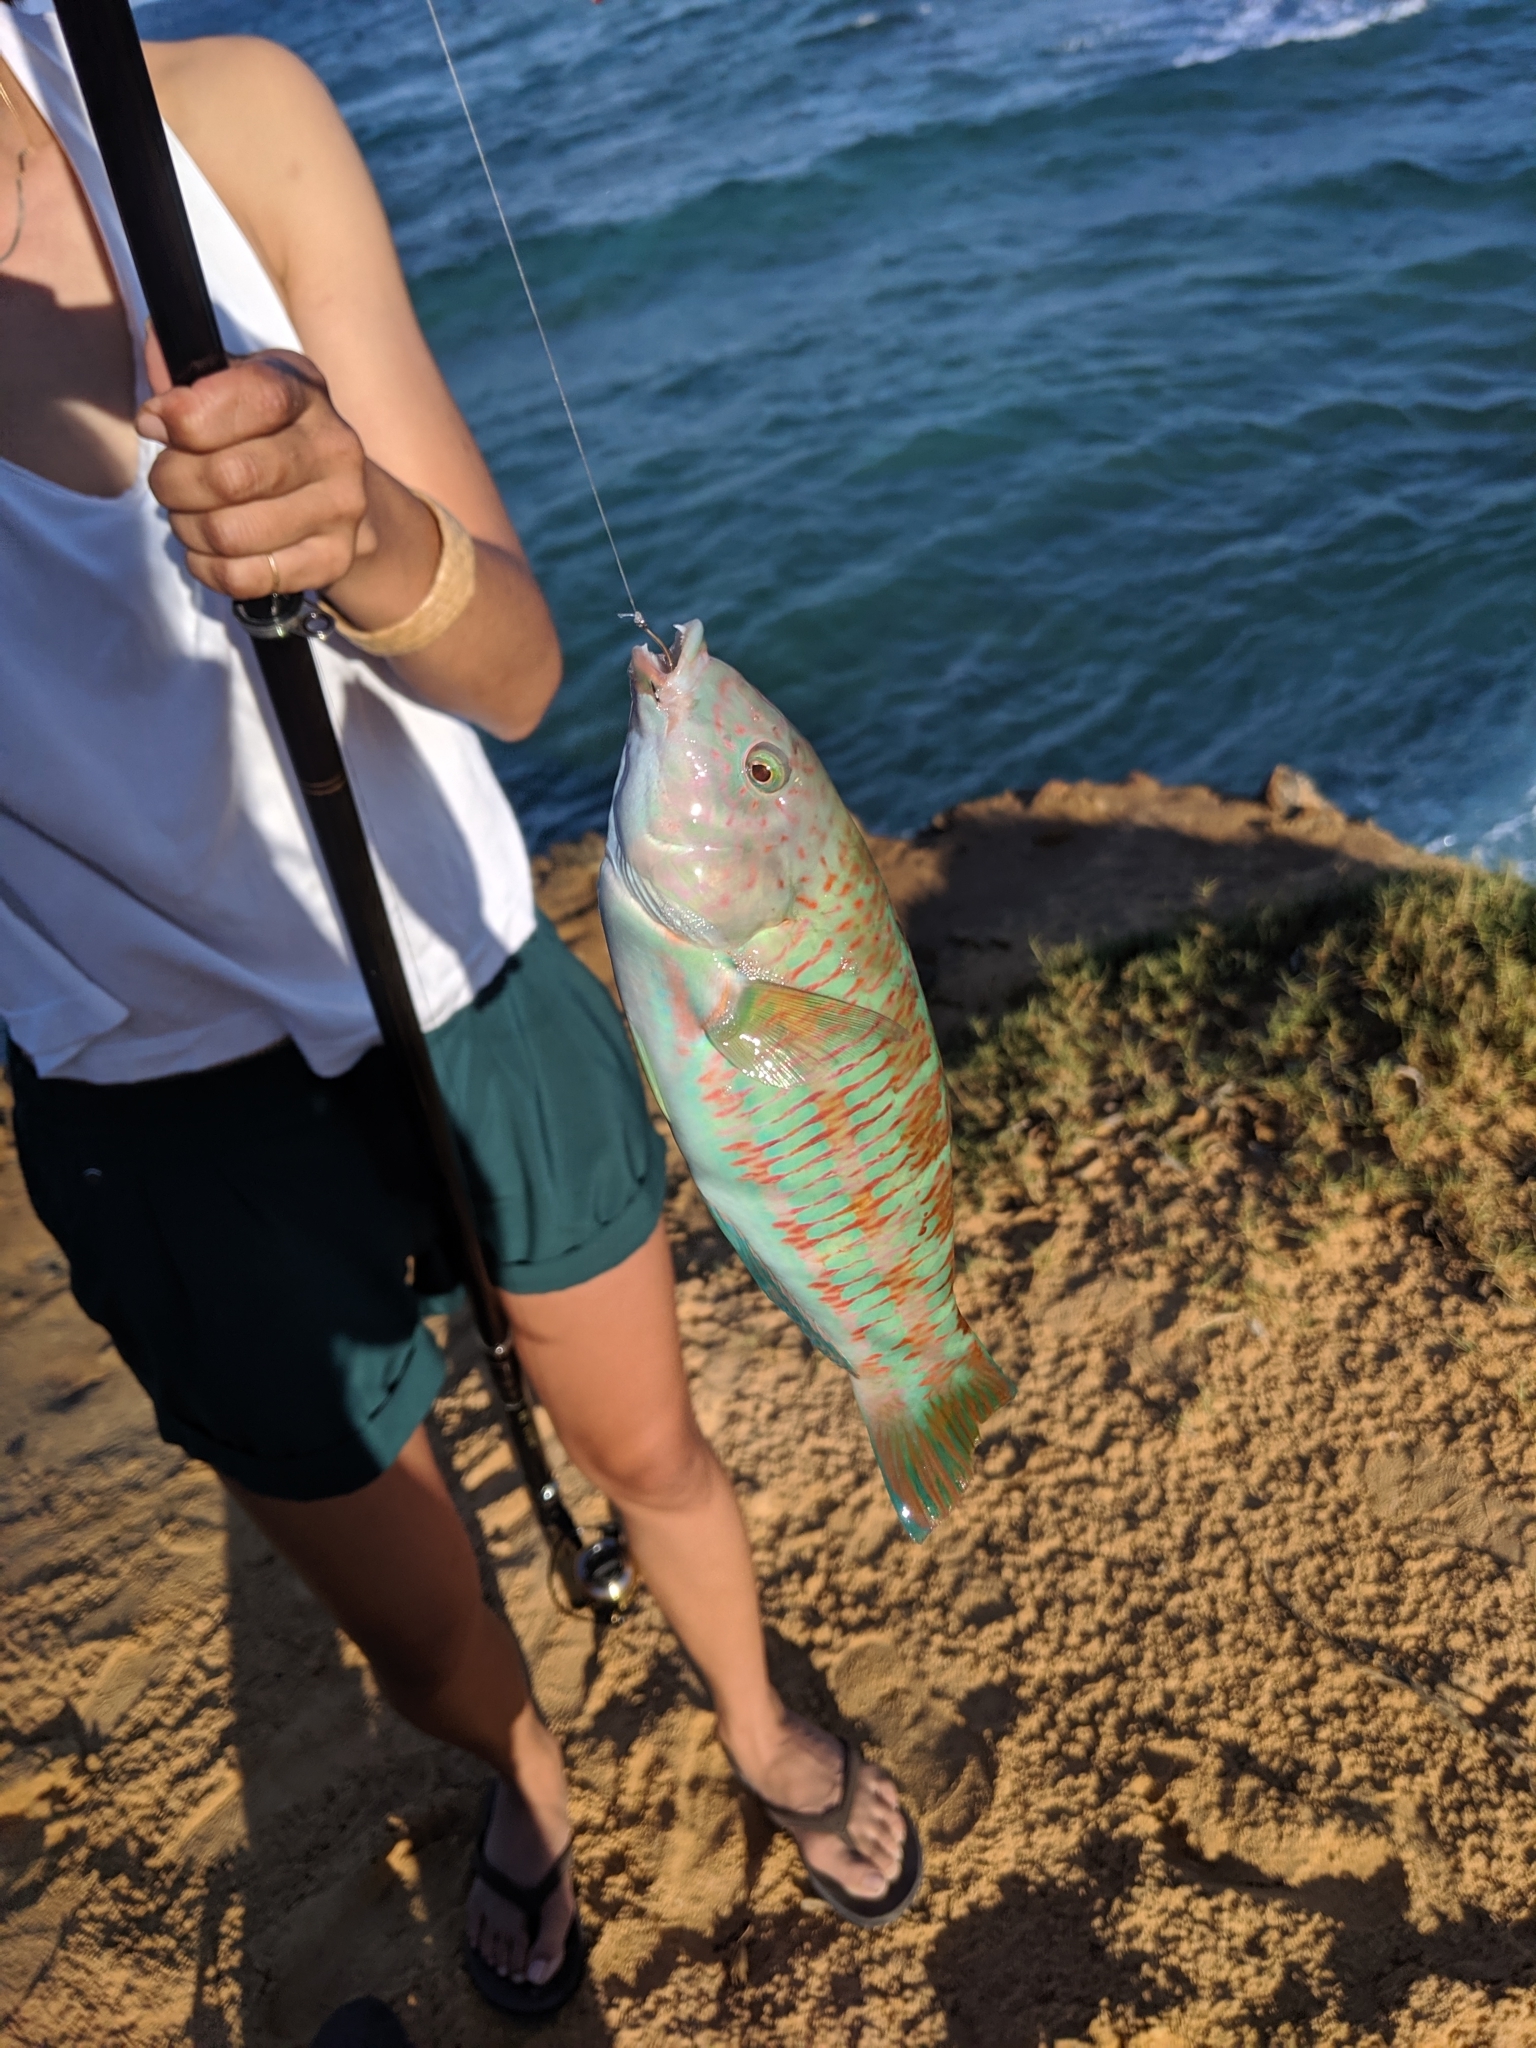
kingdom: Animalia
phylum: Chordata
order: Perciformes
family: Labridae
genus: Thalassoma
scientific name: Thalassoma trilobatum
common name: Christmas wrasse
